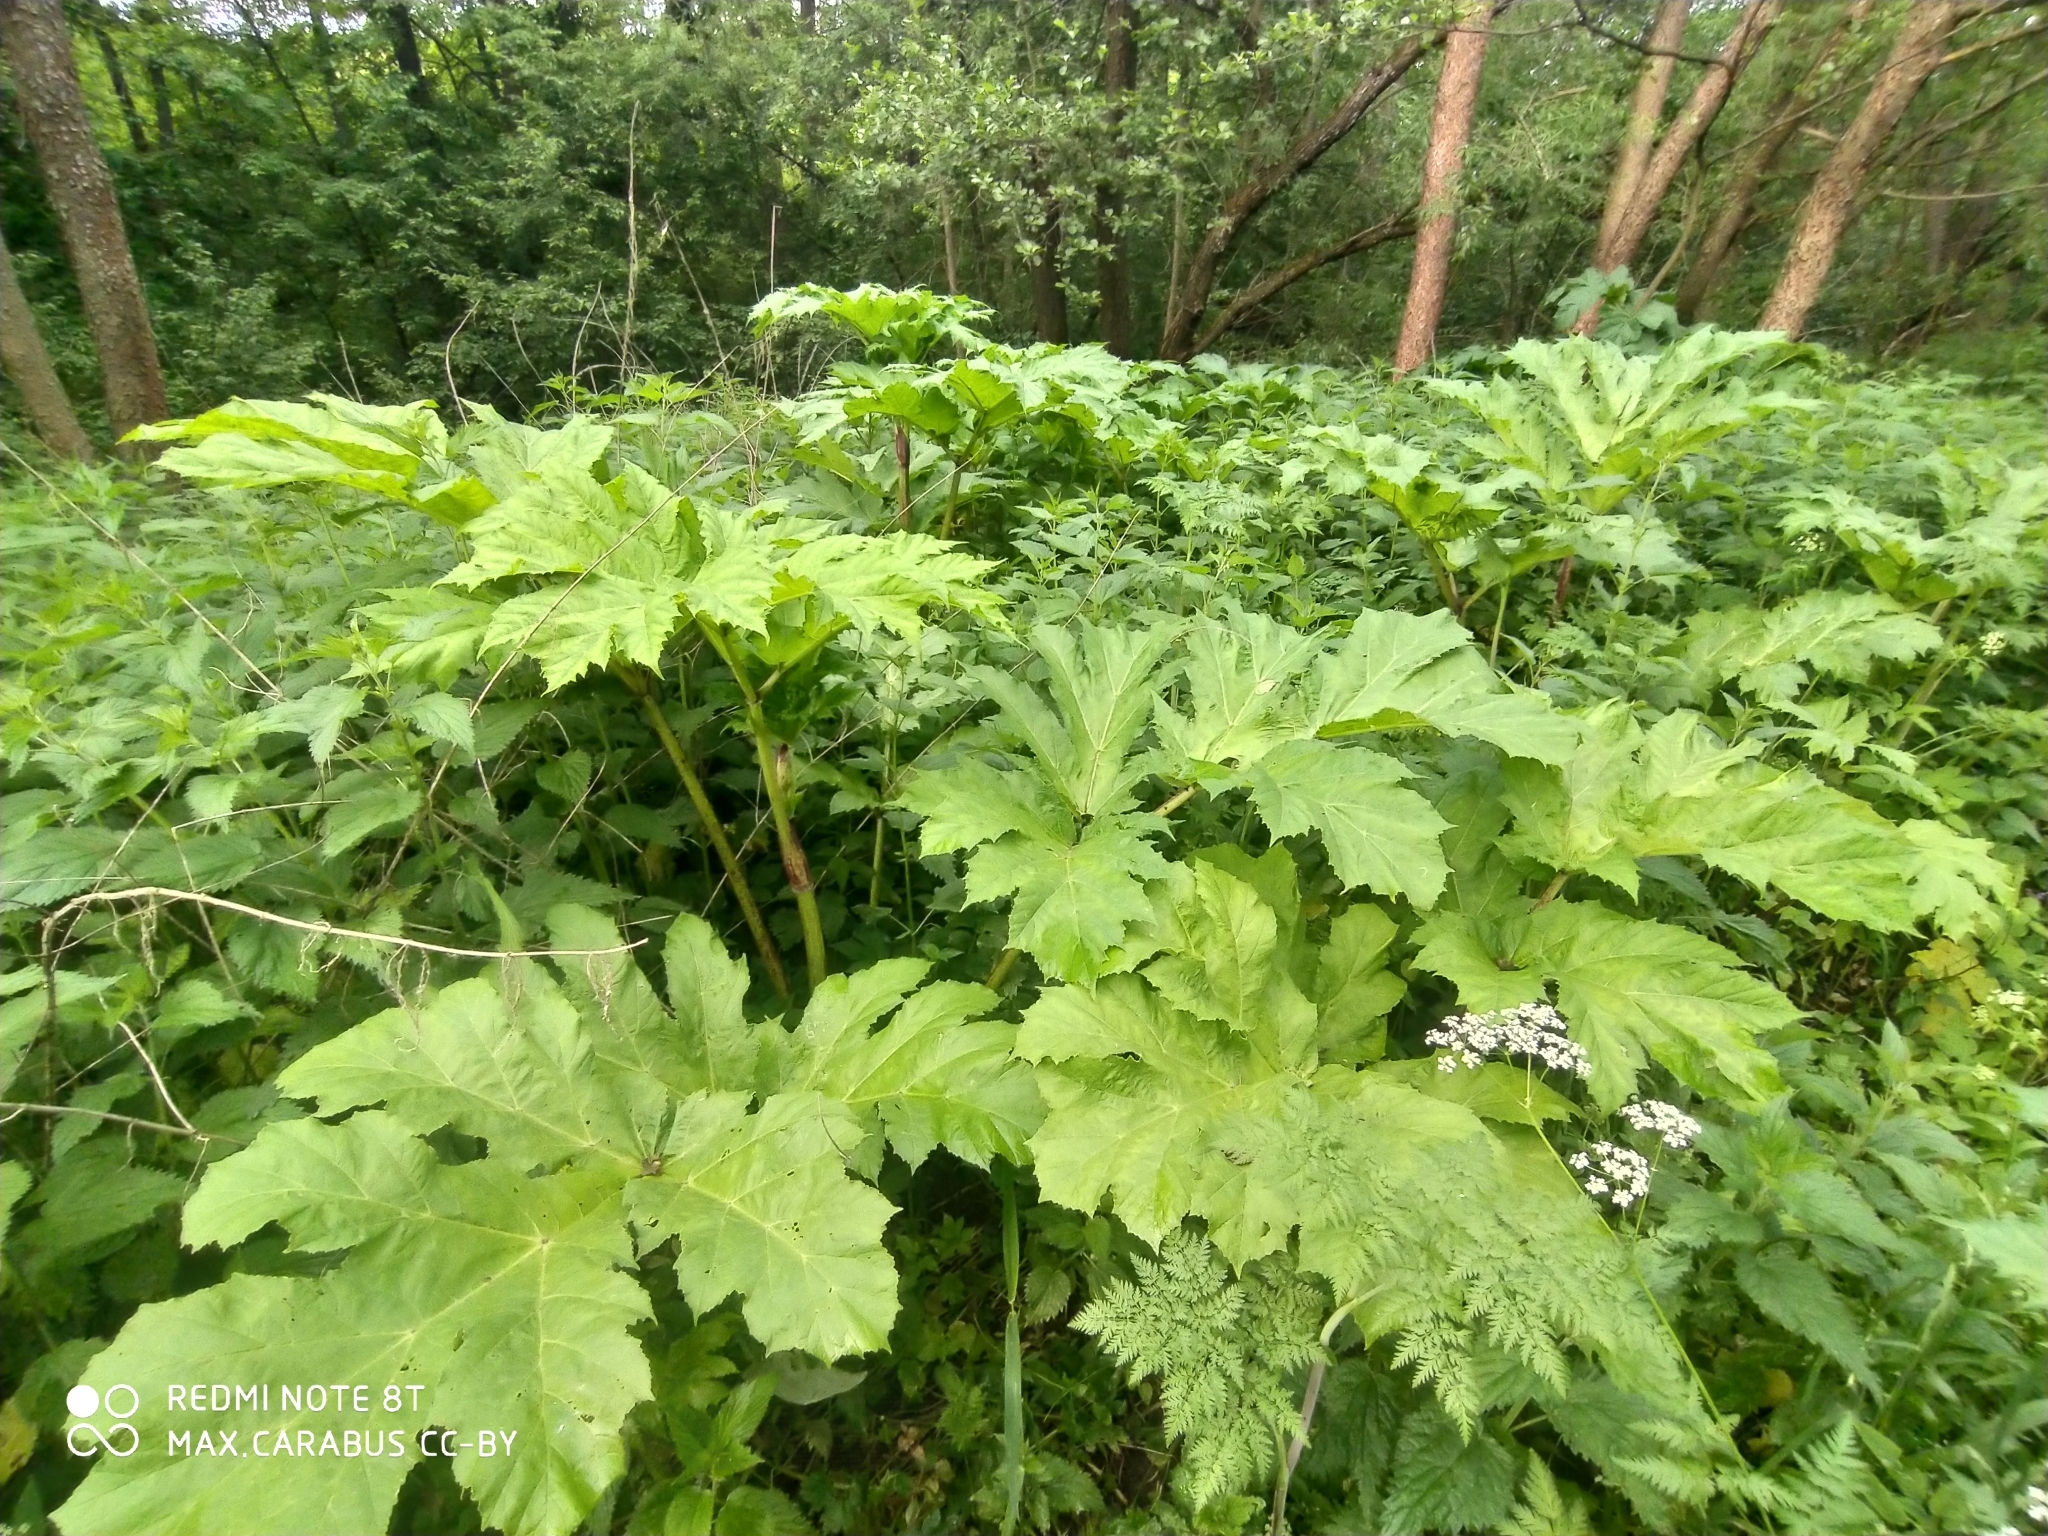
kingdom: Plantae
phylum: Tracheophyta
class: Magnoliopsida
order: Apiales
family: Apiaceae
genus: Heracleum
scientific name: Heracleum sosnowskyi
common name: Sosnowsky's hogweed
